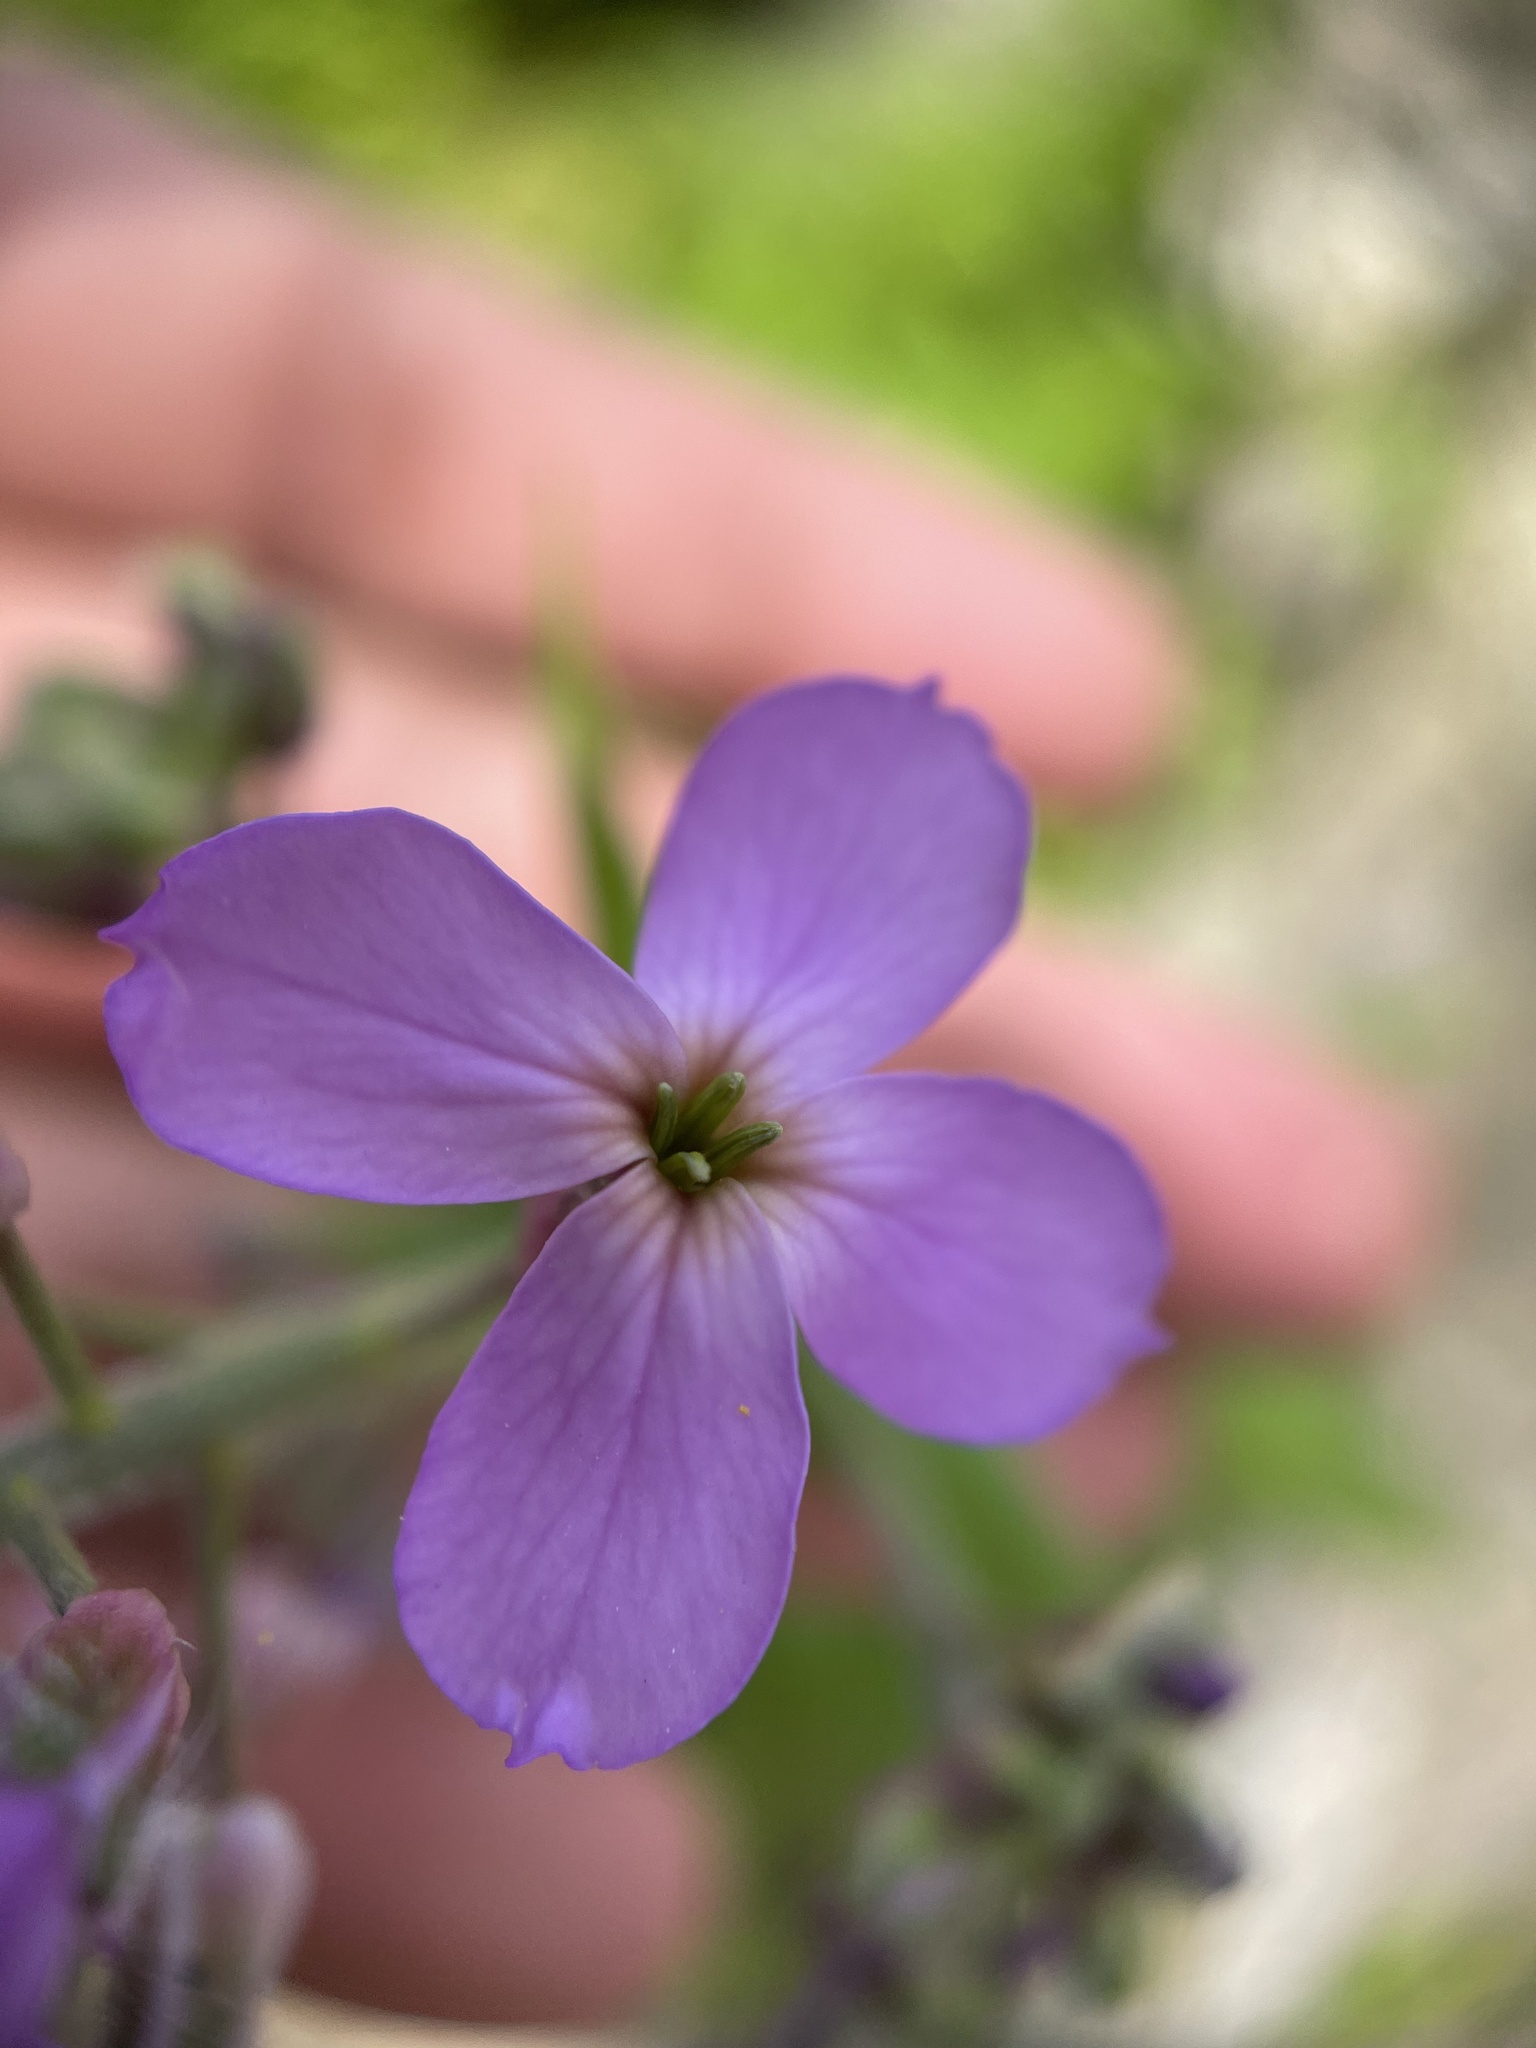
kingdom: Plantae
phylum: Tracheophyta
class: Magnoliopsida
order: Brassicales
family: Brassicaceae
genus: Hesperis
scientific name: Hesperis matronalis
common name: Dame's-violet
